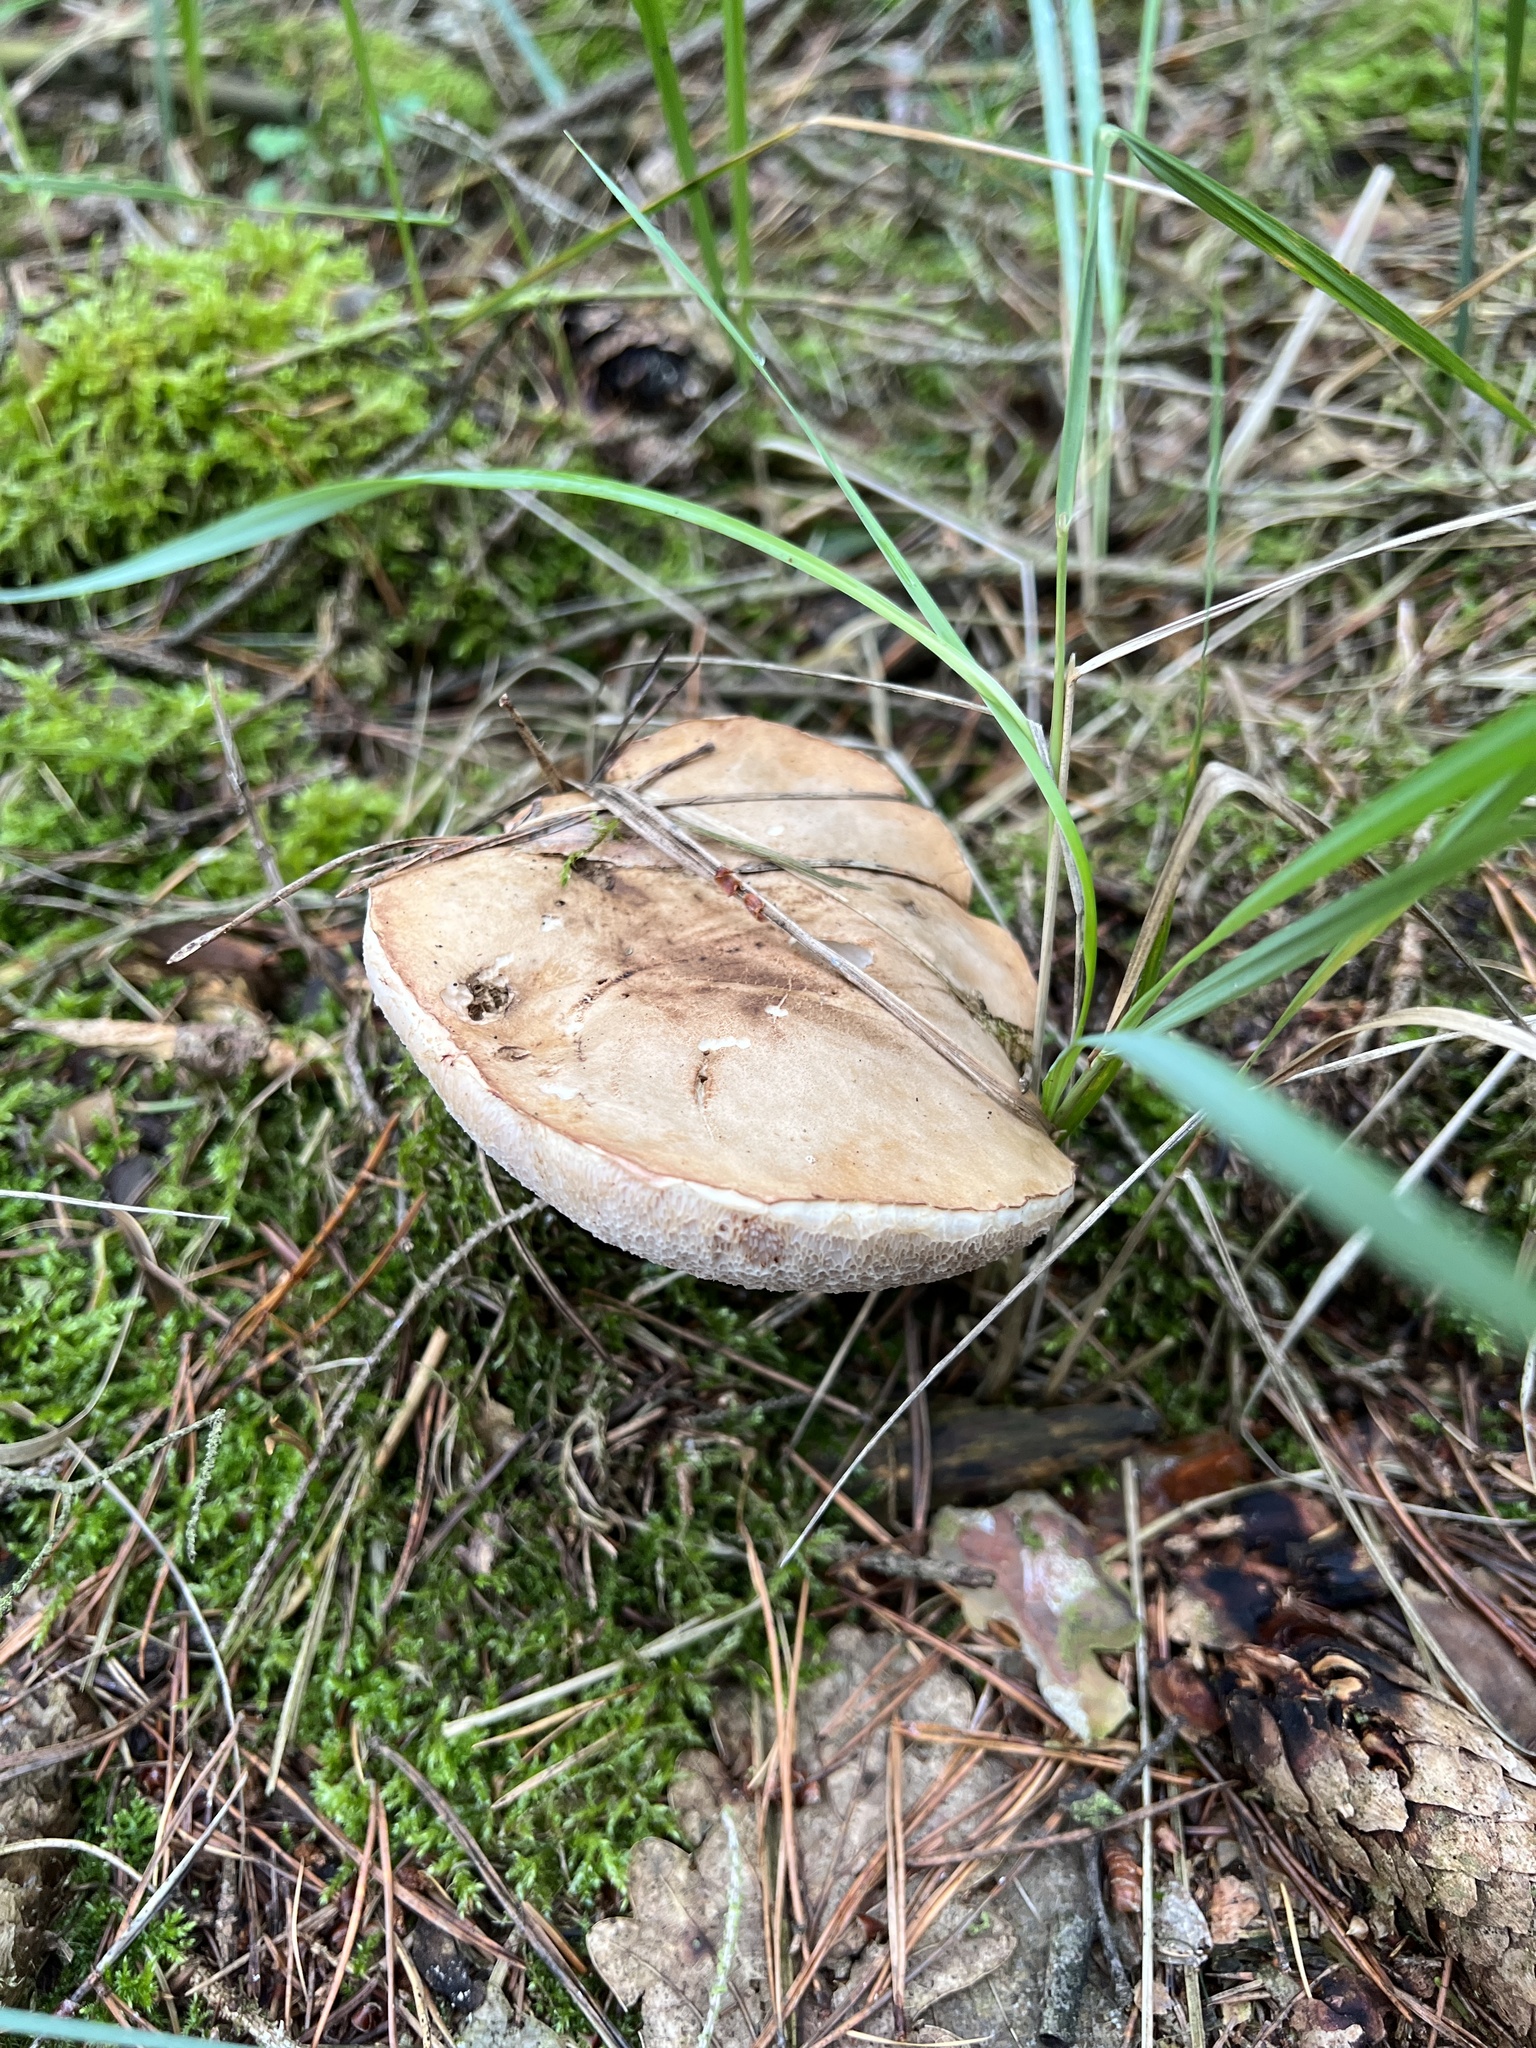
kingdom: Fungi
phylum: Basidiomycota
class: Agaricomycetes
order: Boletales
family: Boletaceae
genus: Tylopilus
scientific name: Tylopilus felleus
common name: Bitter bolete
